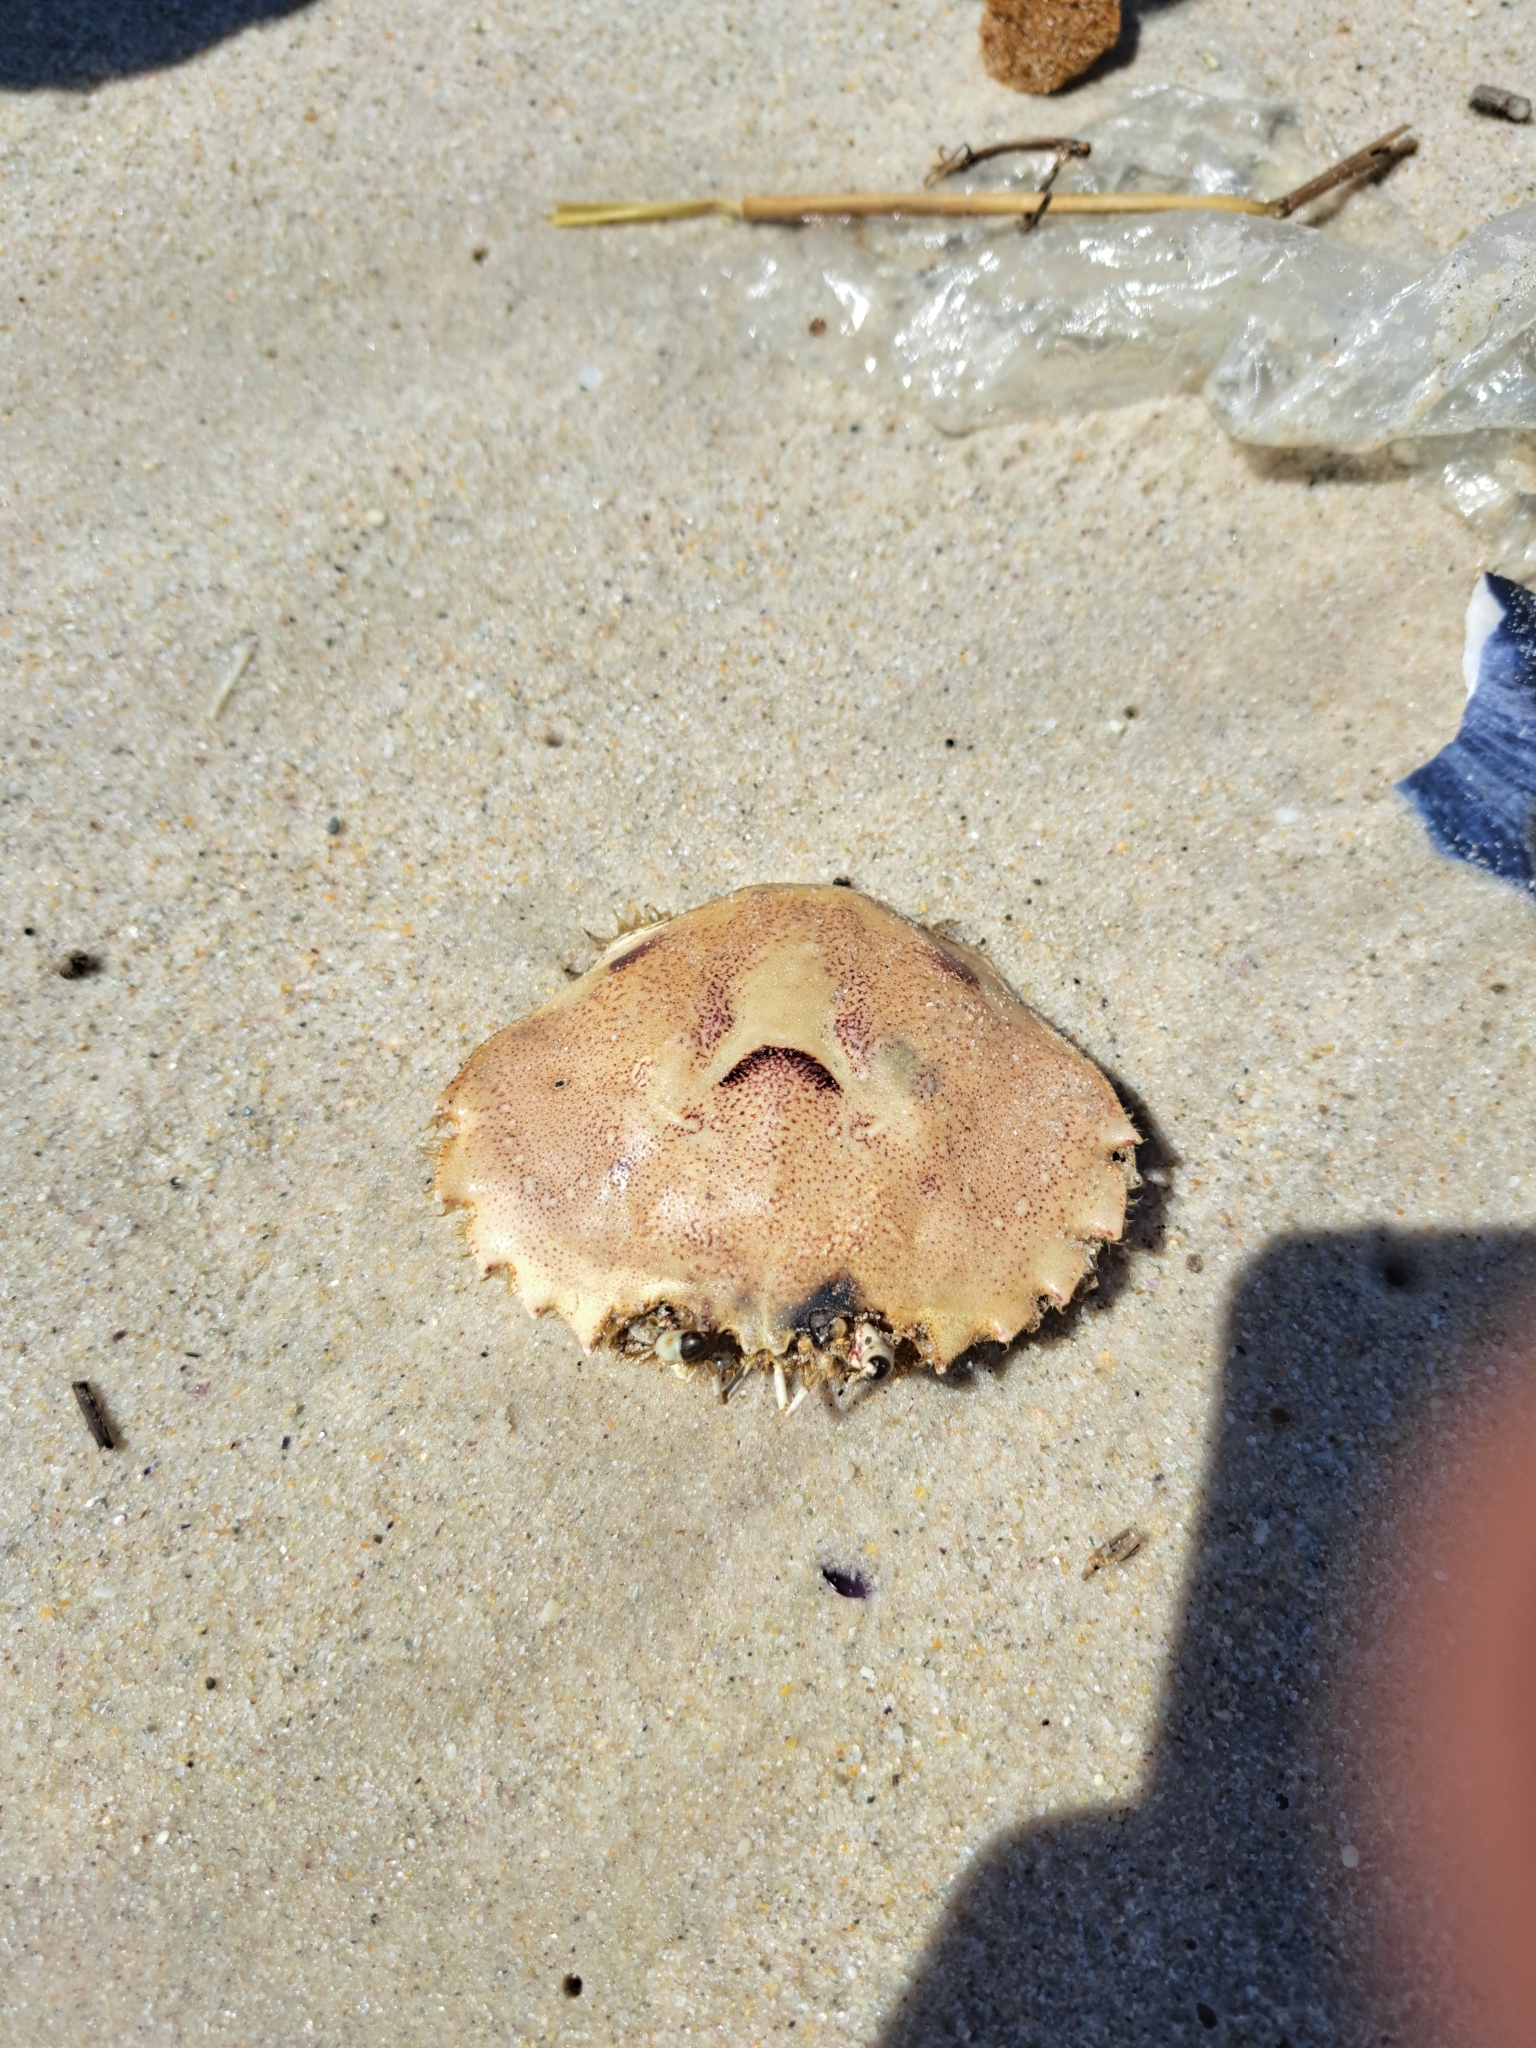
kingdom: Animalia
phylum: Arthropoda
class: Malacostraca
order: Decapoda
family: Ovalipidae
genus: Ovalipes
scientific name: Ovalipes trimaculatus
